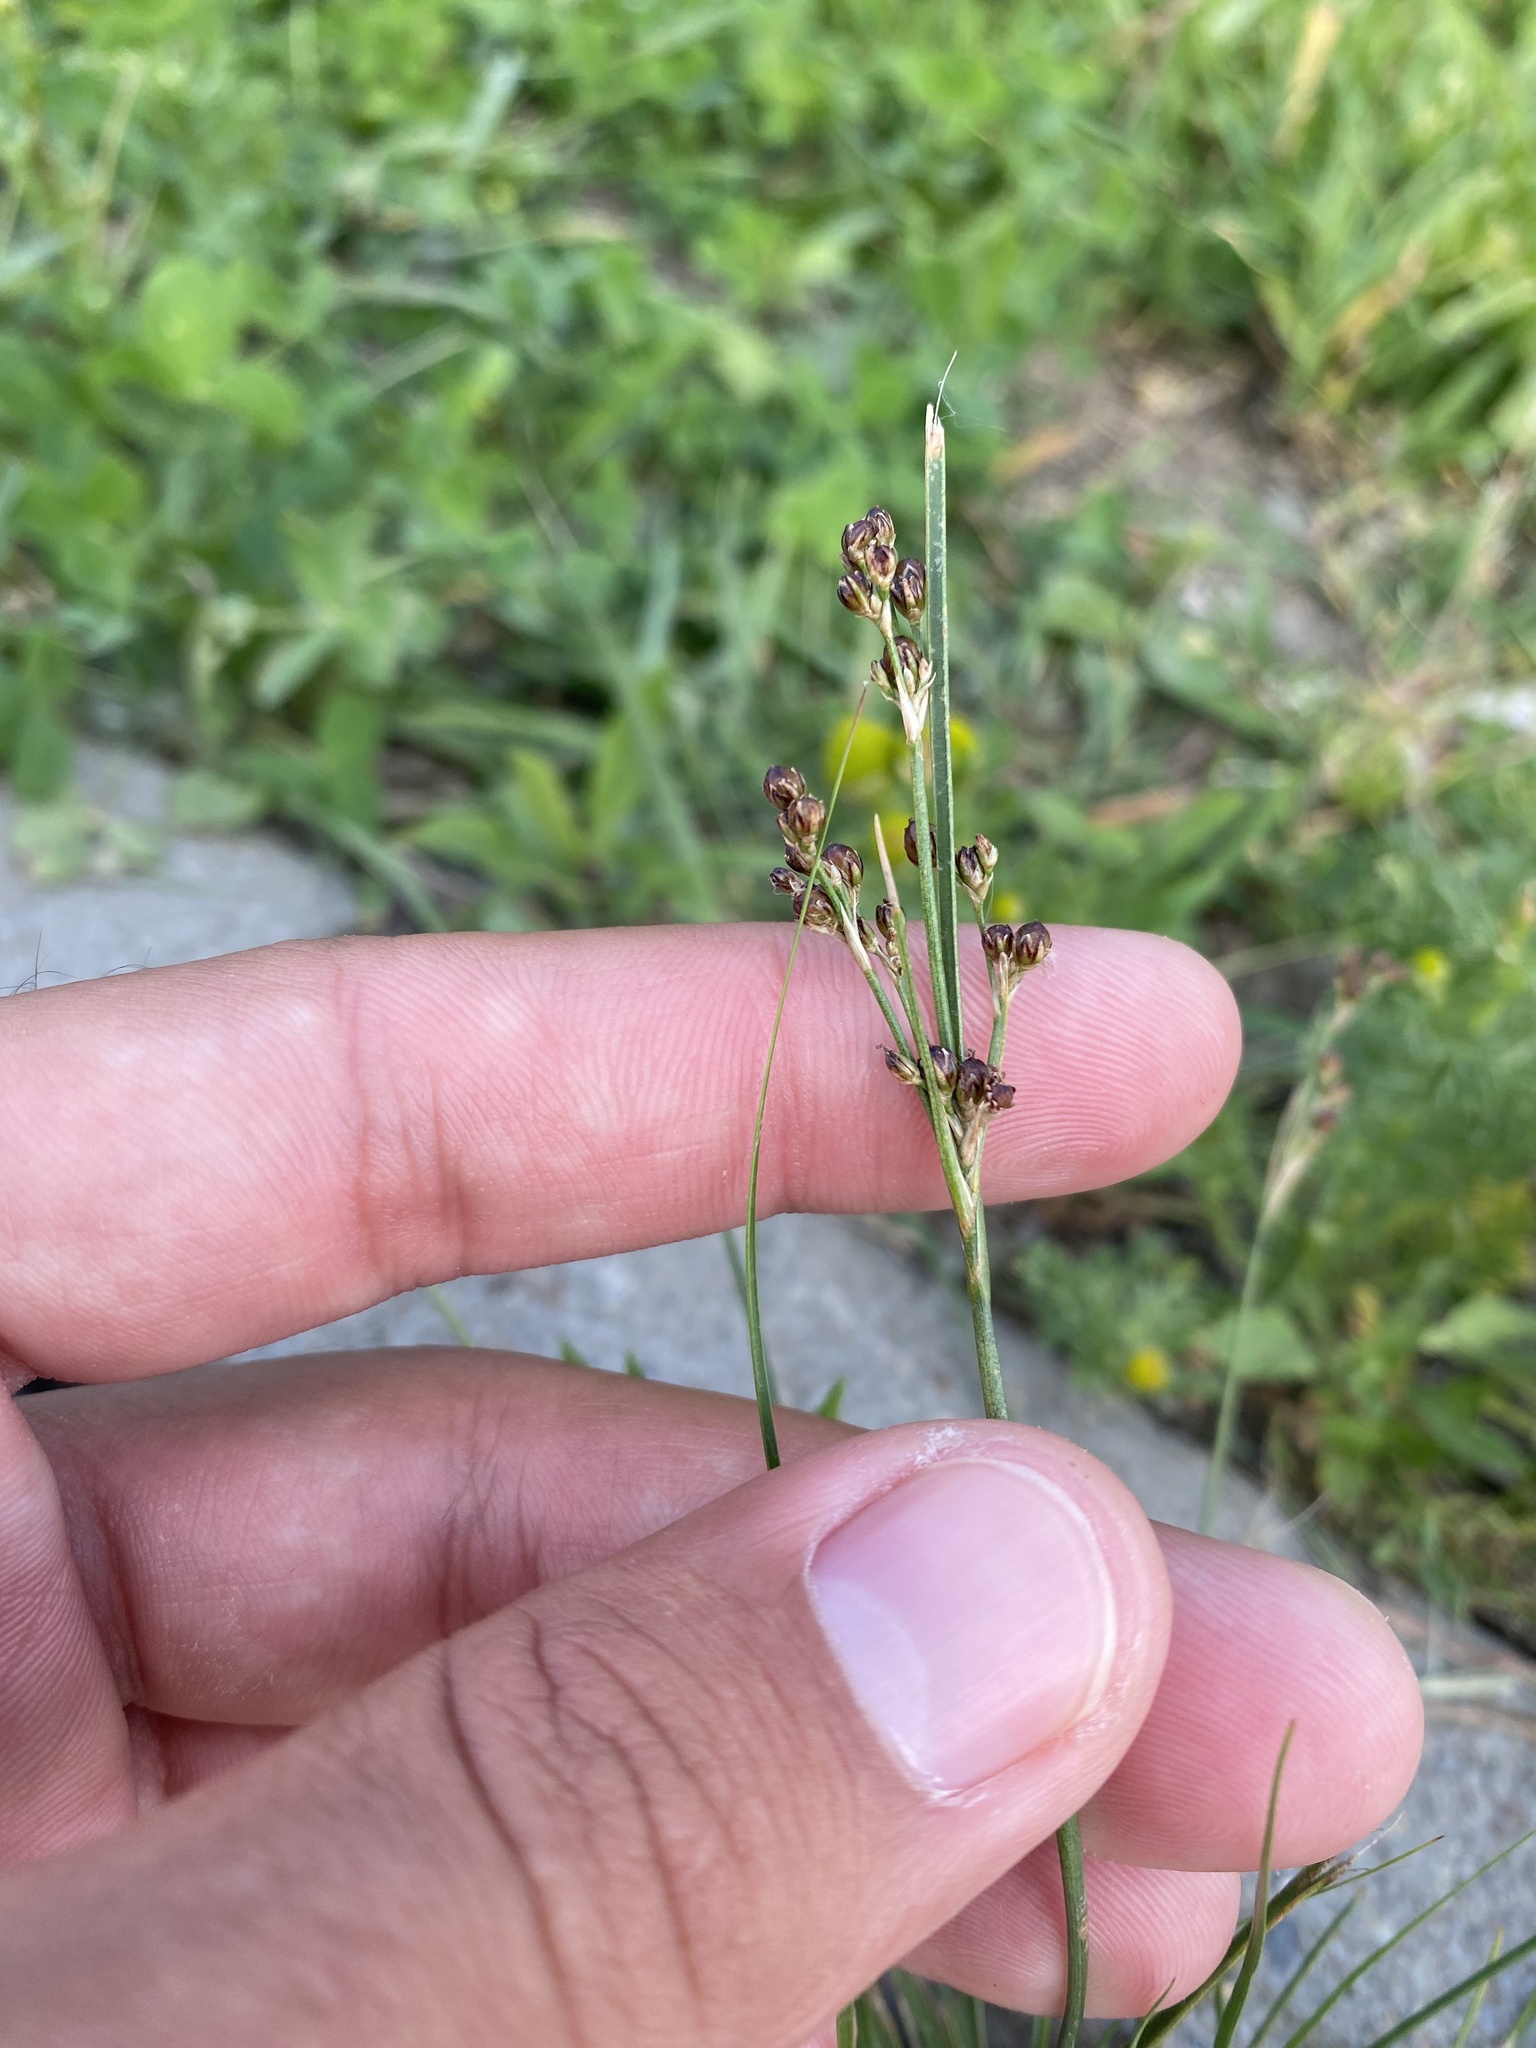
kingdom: Plantae
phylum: Tracheophyta
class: Liliopsida
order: Poales
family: Juncaceae
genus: Juncus
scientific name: Juncus compressus
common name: Round-fruited rush
